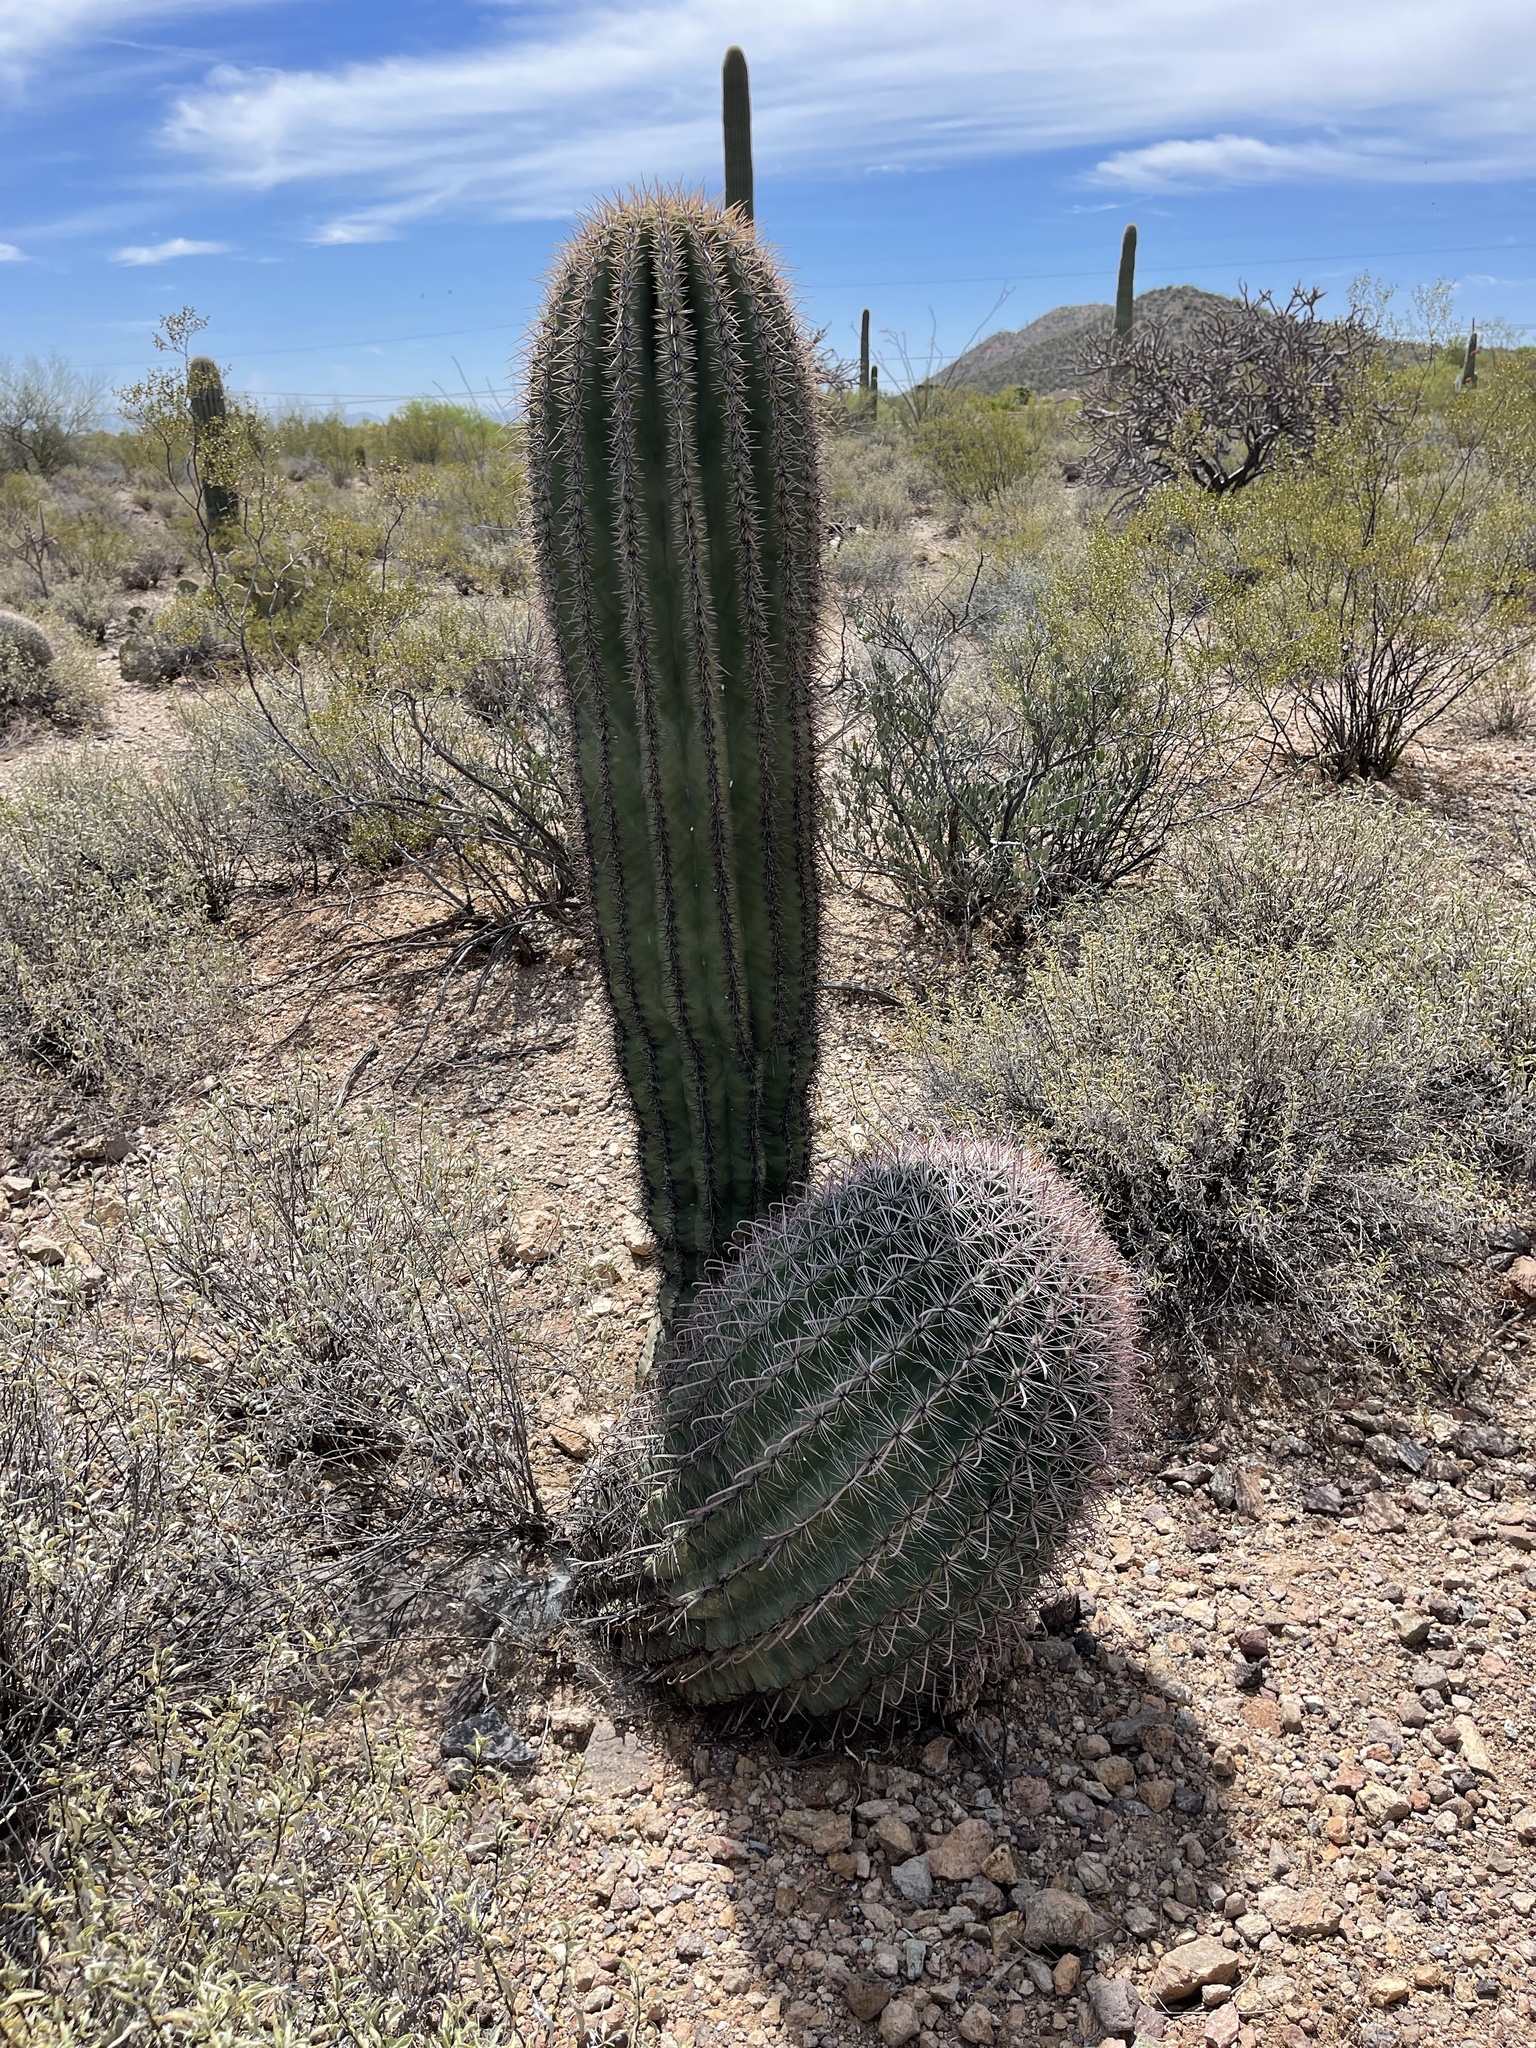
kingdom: Plantae
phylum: Tracheophyta
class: Magnoliopsida
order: Caryophyllales
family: Cactaceae
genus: Carnegiea
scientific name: Carnegiea gigantea
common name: Saguaro
